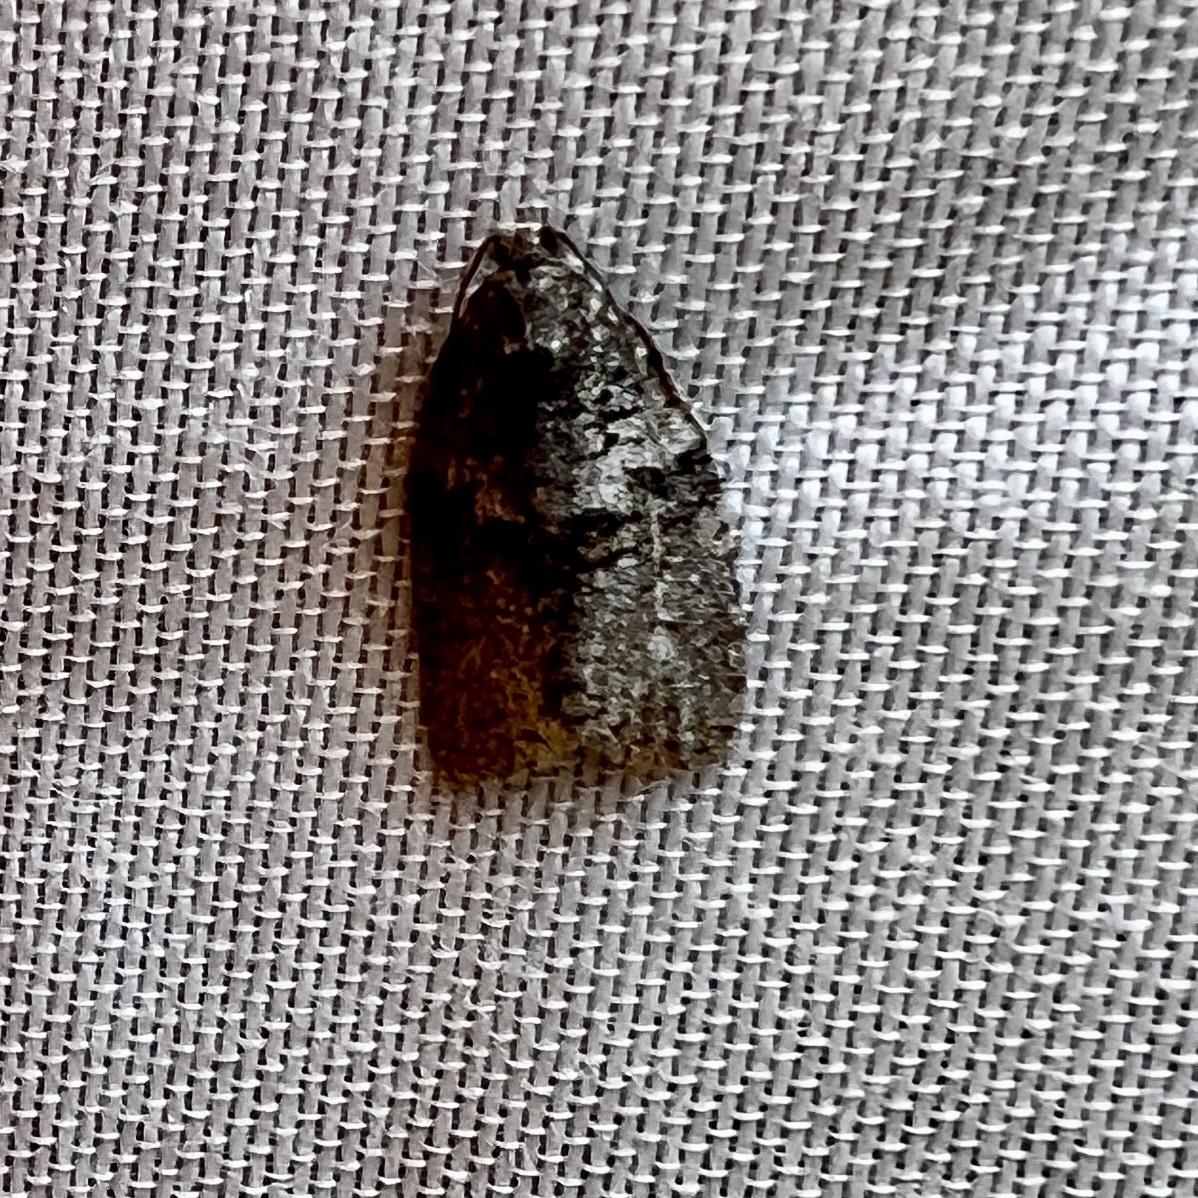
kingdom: Animalia
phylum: Arthropoda
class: Insecta
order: Lepidoptera
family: Tortricidae
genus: Syndemis
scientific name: Syndemis afflictana
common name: Gray leafroller moth
